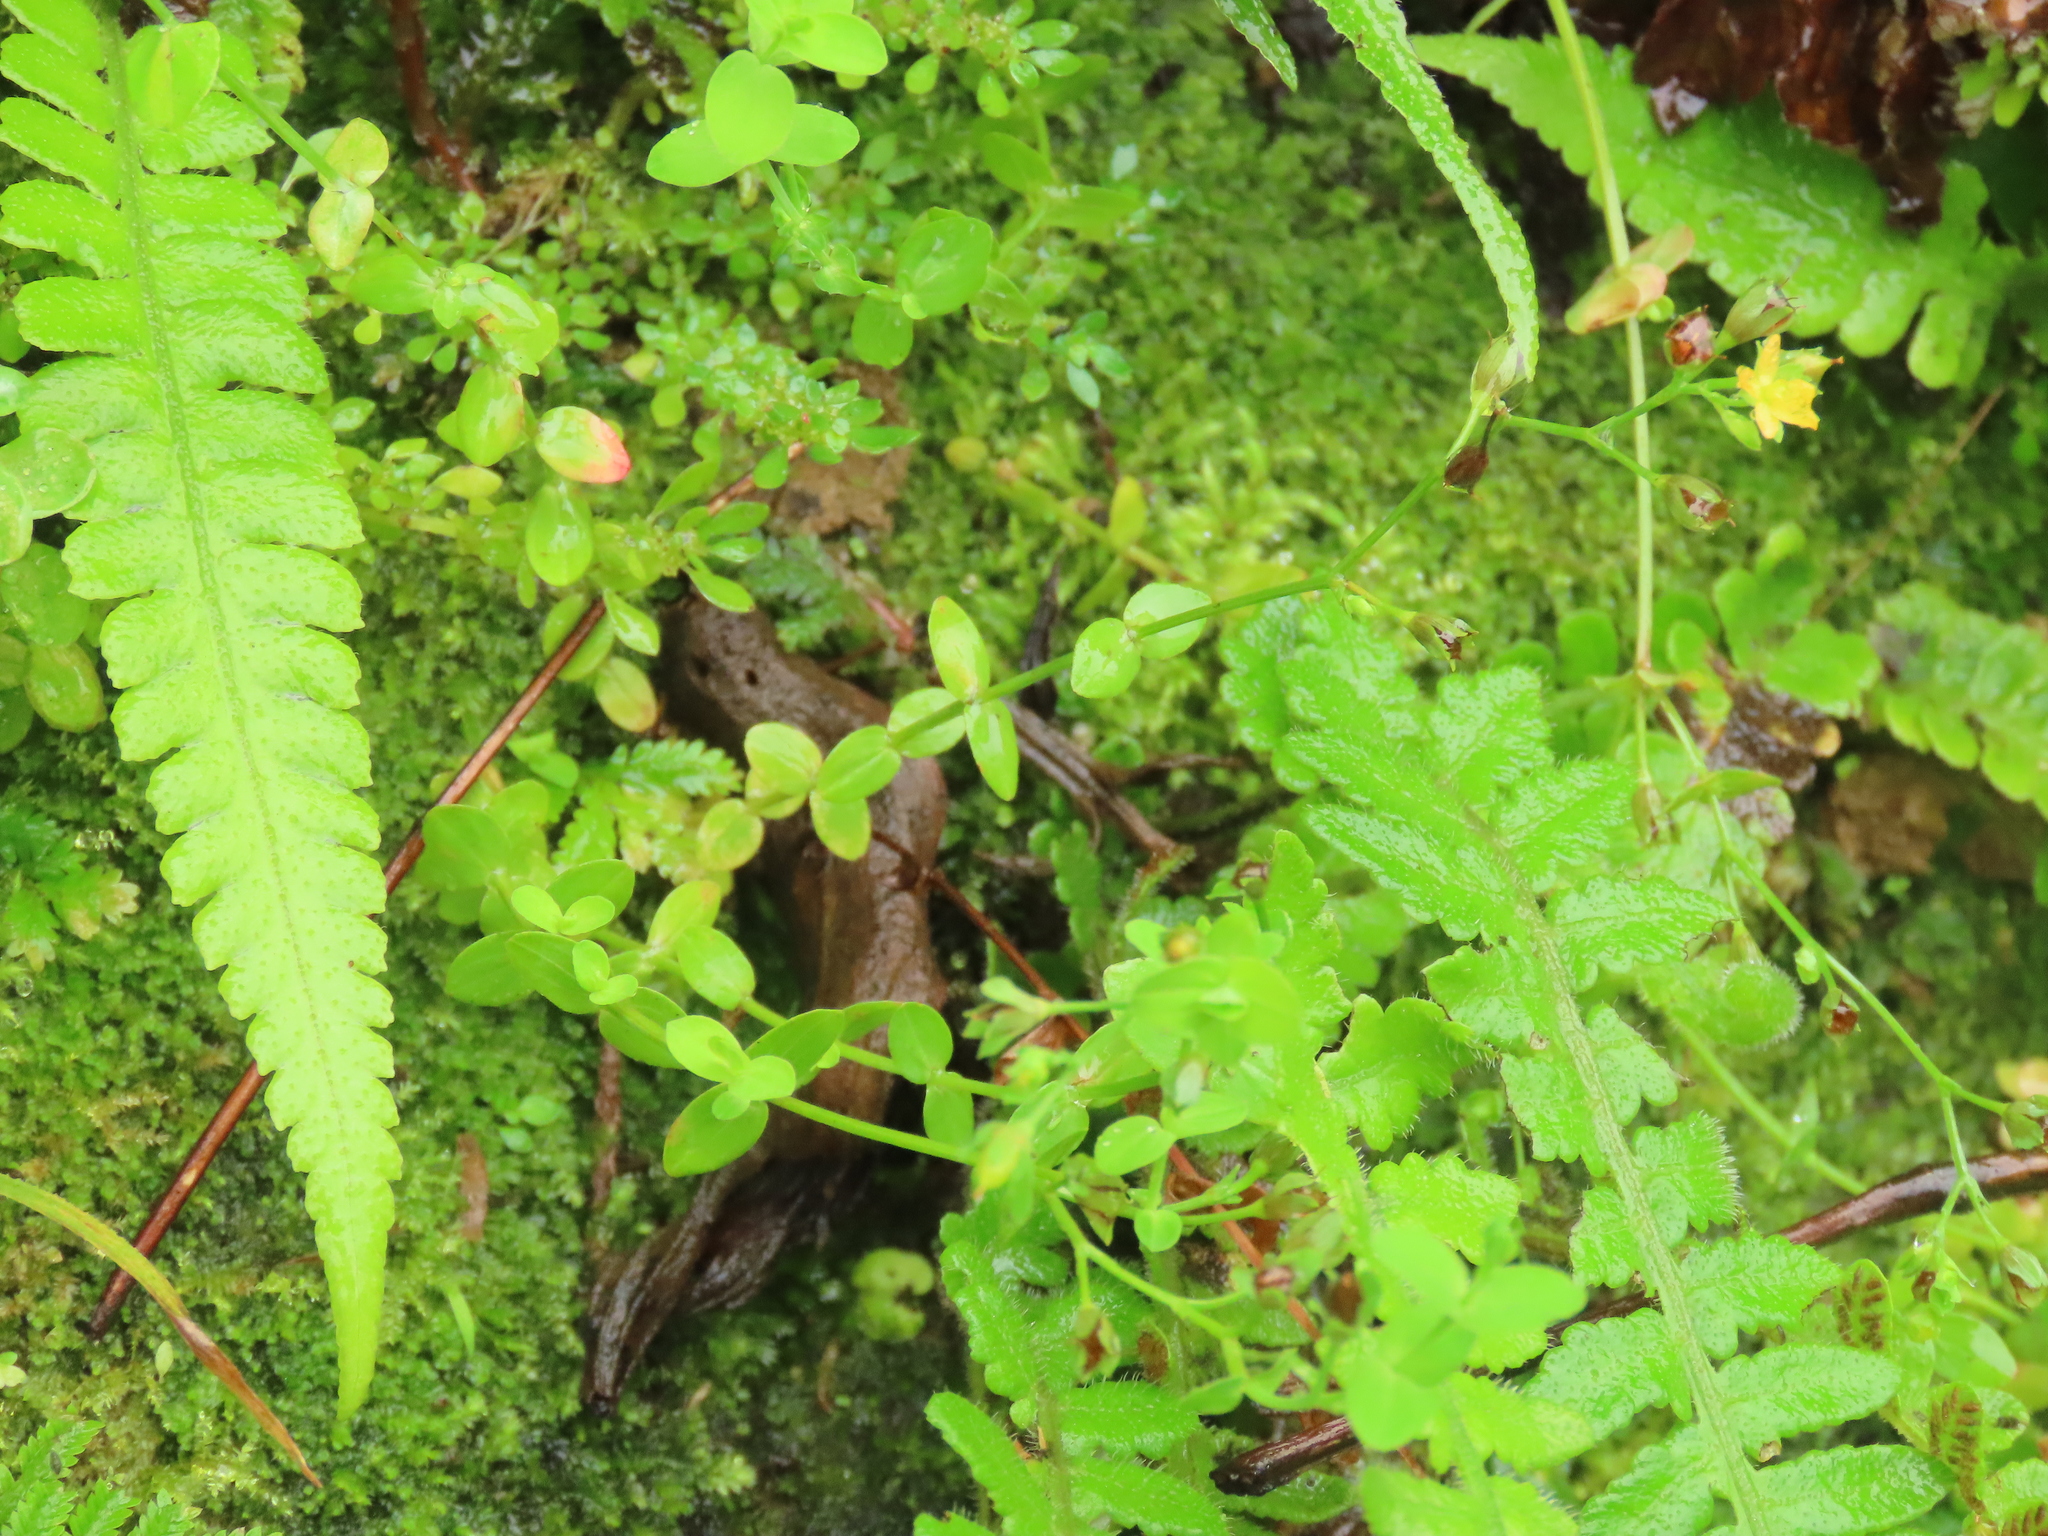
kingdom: Plantae
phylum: Tracheophyta
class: Magnoliopsida
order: Malpighiales
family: Hypericaceae
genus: Hypericum
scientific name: Hypericum japonicum
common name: Matted st. john's-wort
